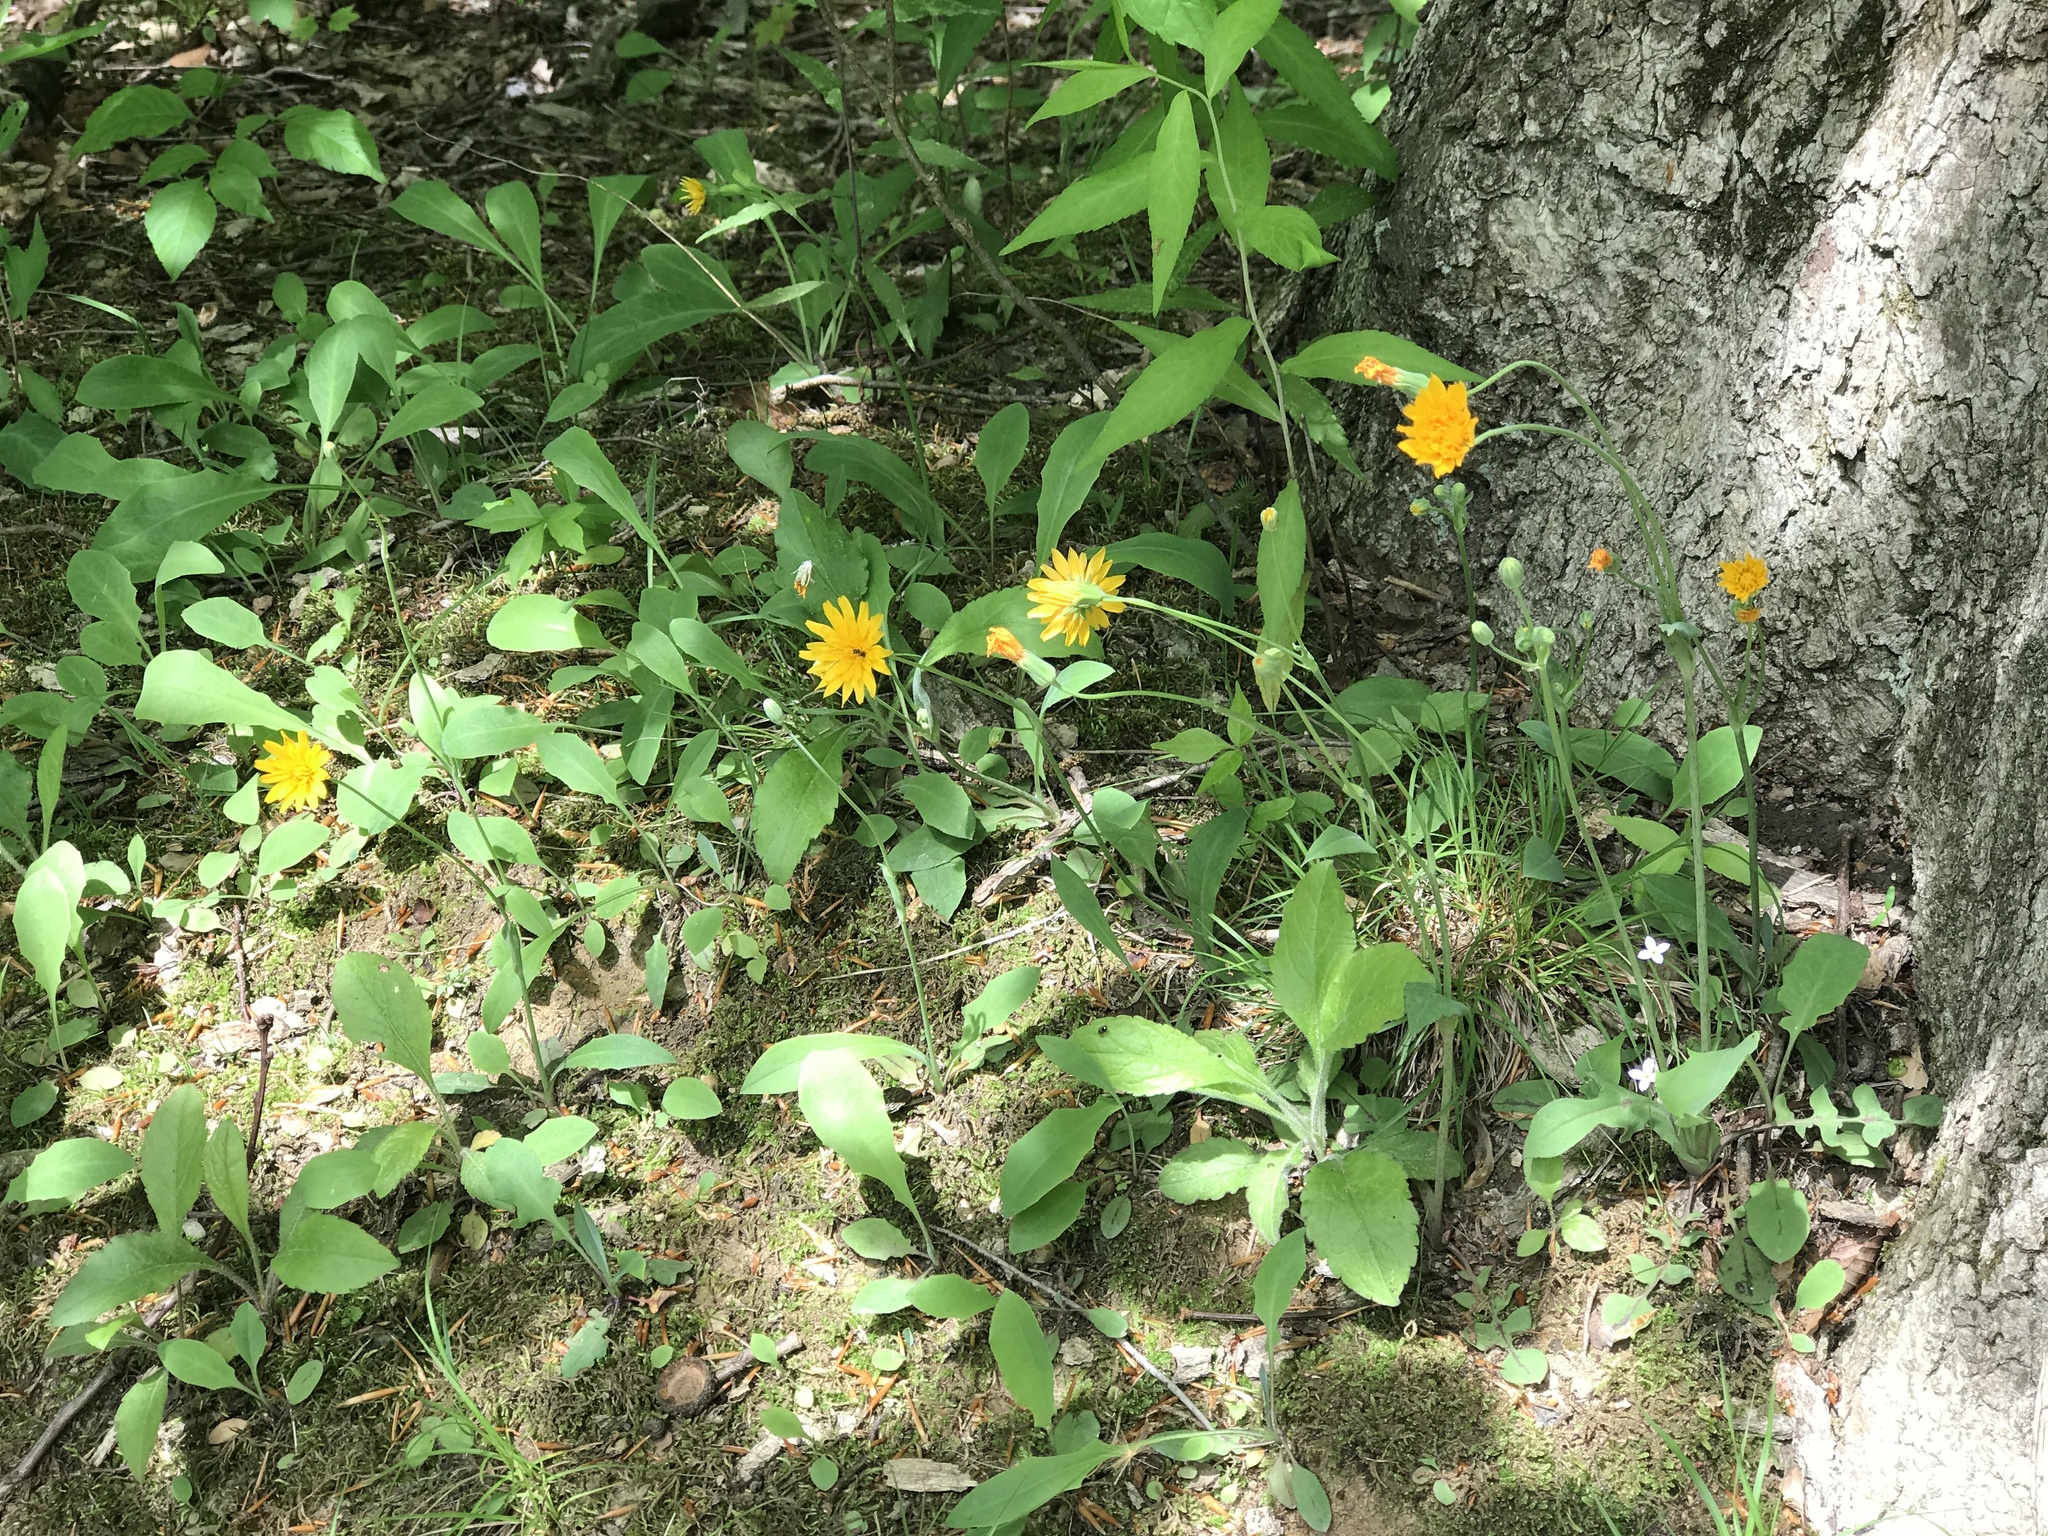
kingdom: Plantae
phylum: Tracheophyta
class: Magnoliopsida
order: Asterales
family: Asteraceae
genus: Krigia
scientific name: Krigia biflora
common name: Orange dwarf-dandelion
